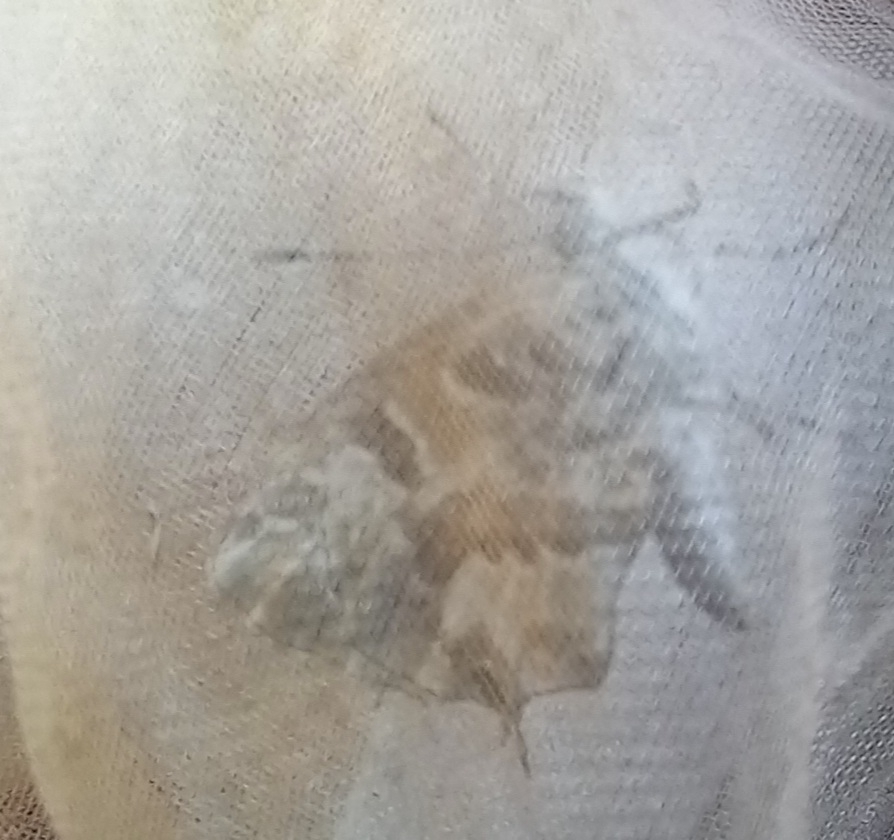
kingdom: Animalia
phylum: Arthropoda
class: Insecta
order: Lepidoptera
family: Lycaenidae
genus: Cacyreus
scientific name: Cacyreus marshalli
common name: Geranium bronze
